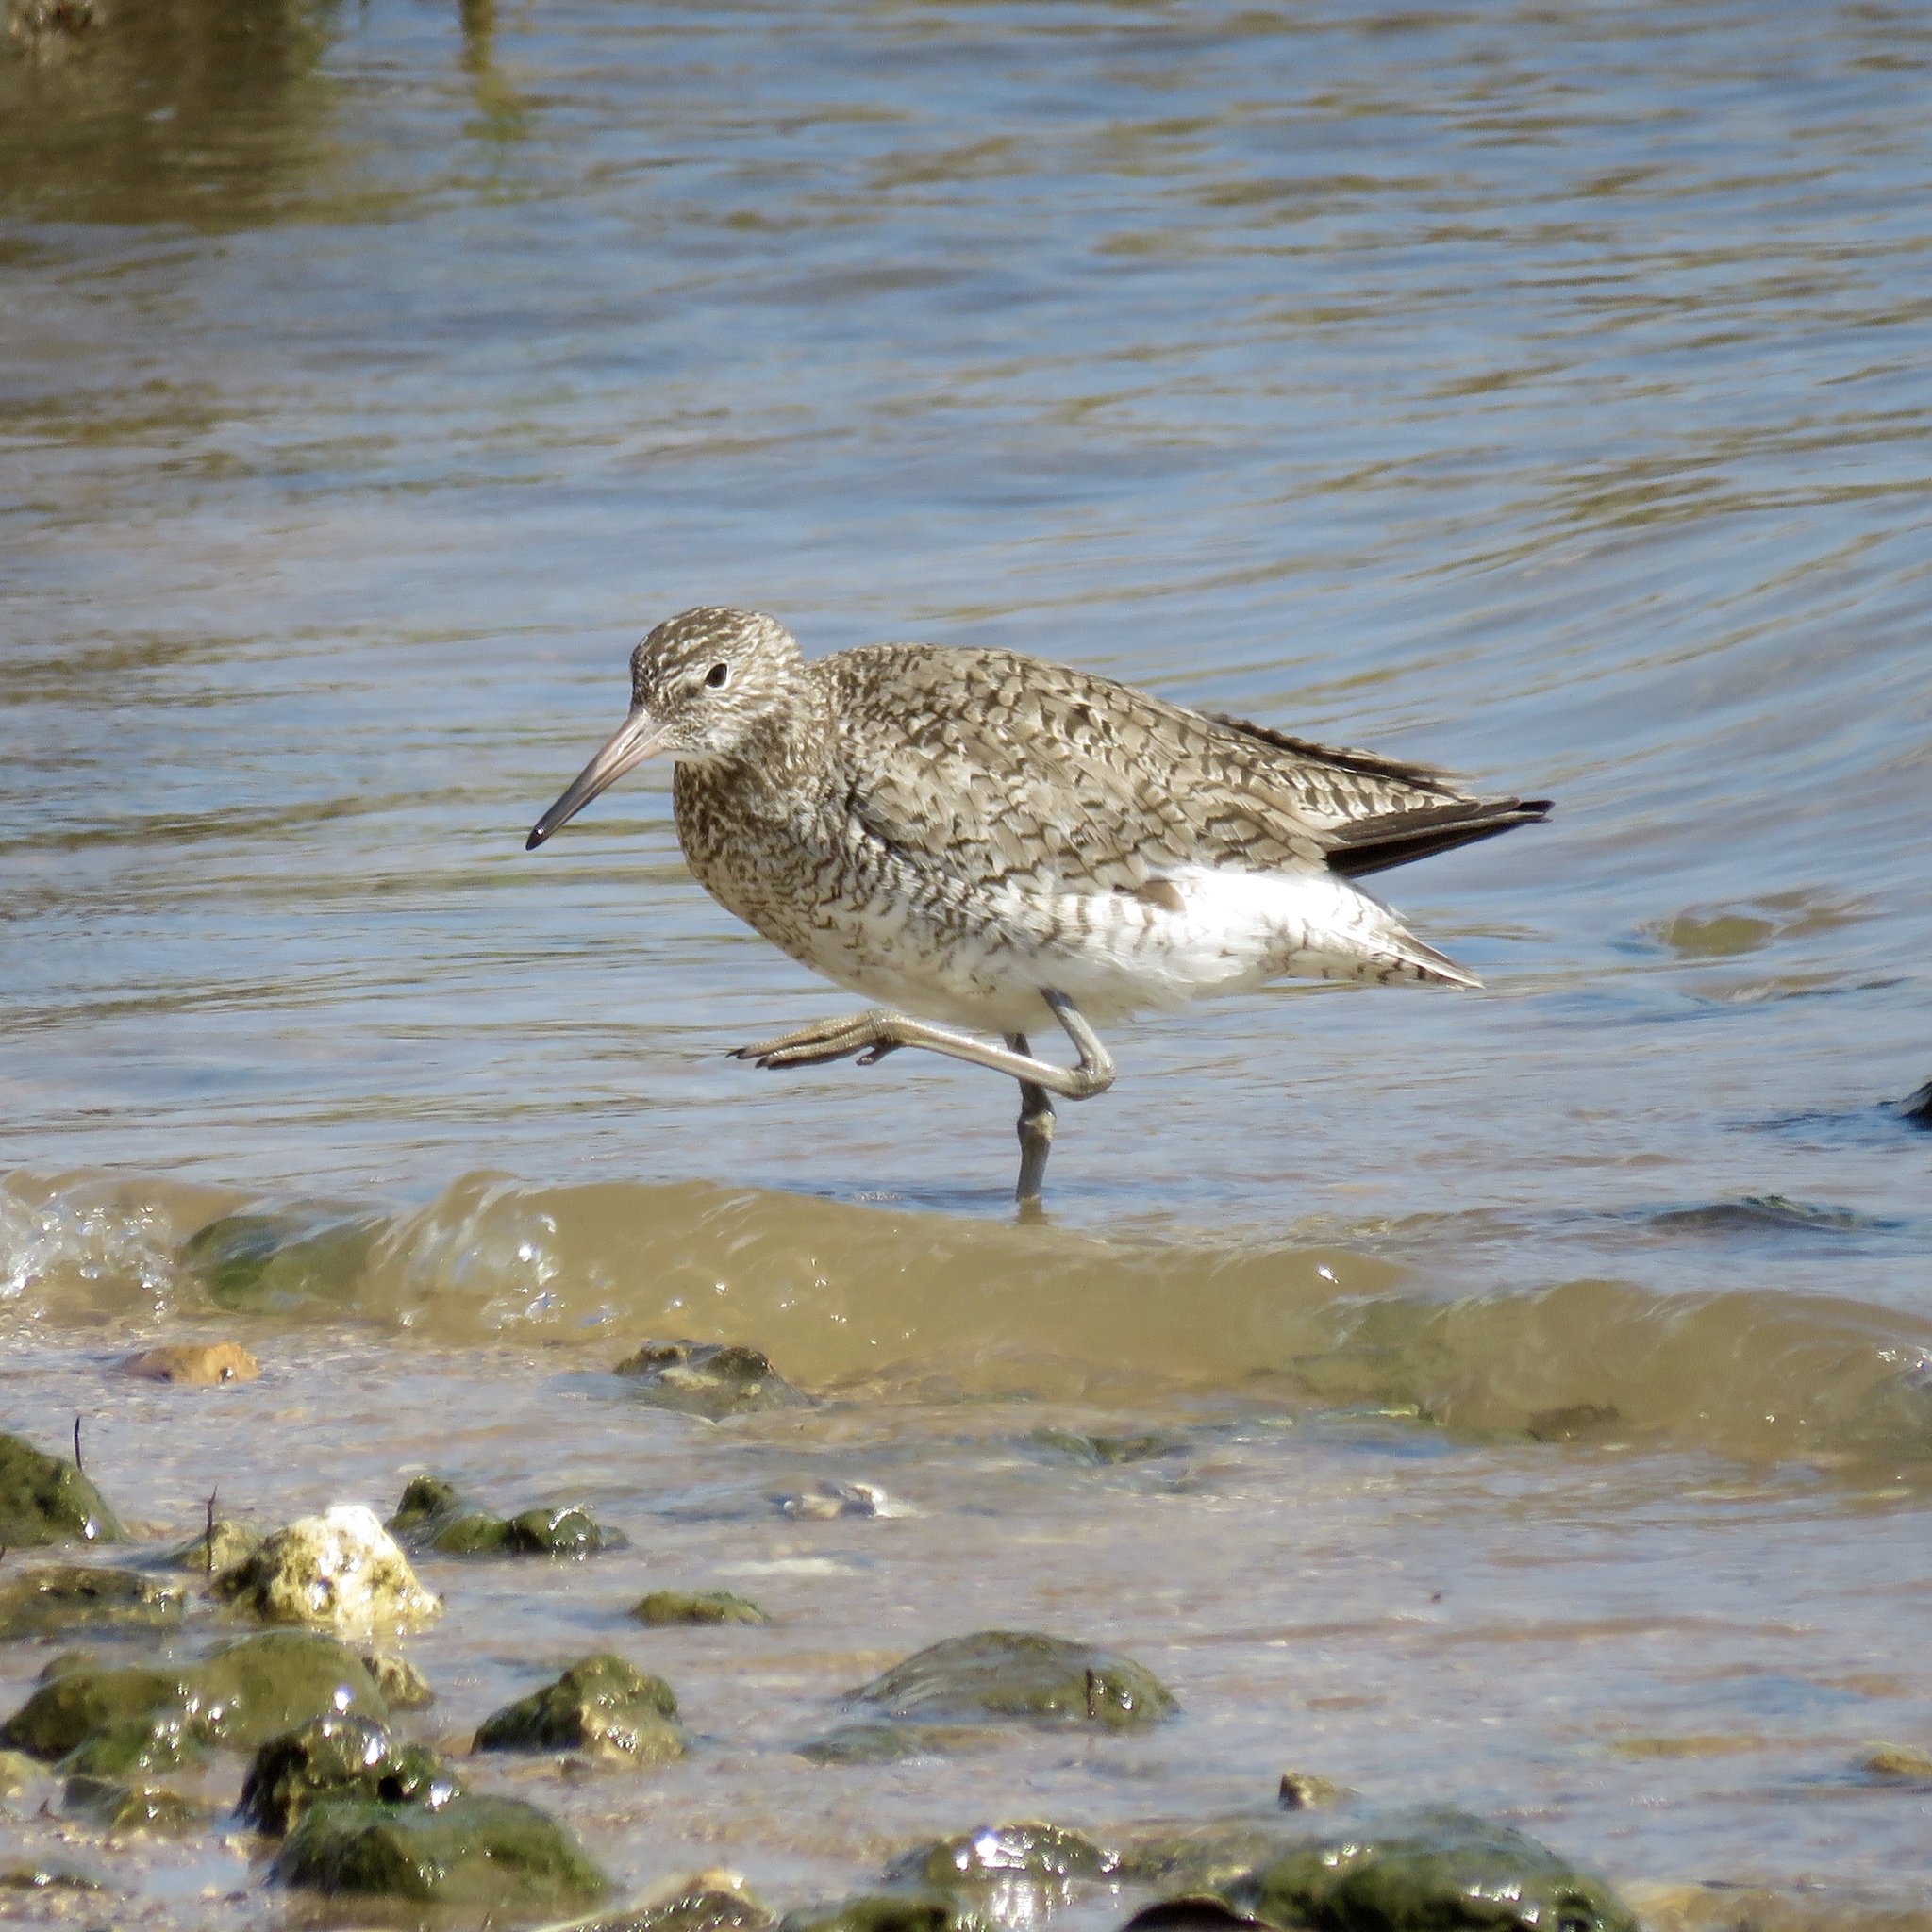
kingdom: Animalia
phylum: Chordata
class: Aves
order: Charadriiformes
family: Scolopacidae
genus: Tringa
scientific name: Tringa semipalmata
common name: Willet
